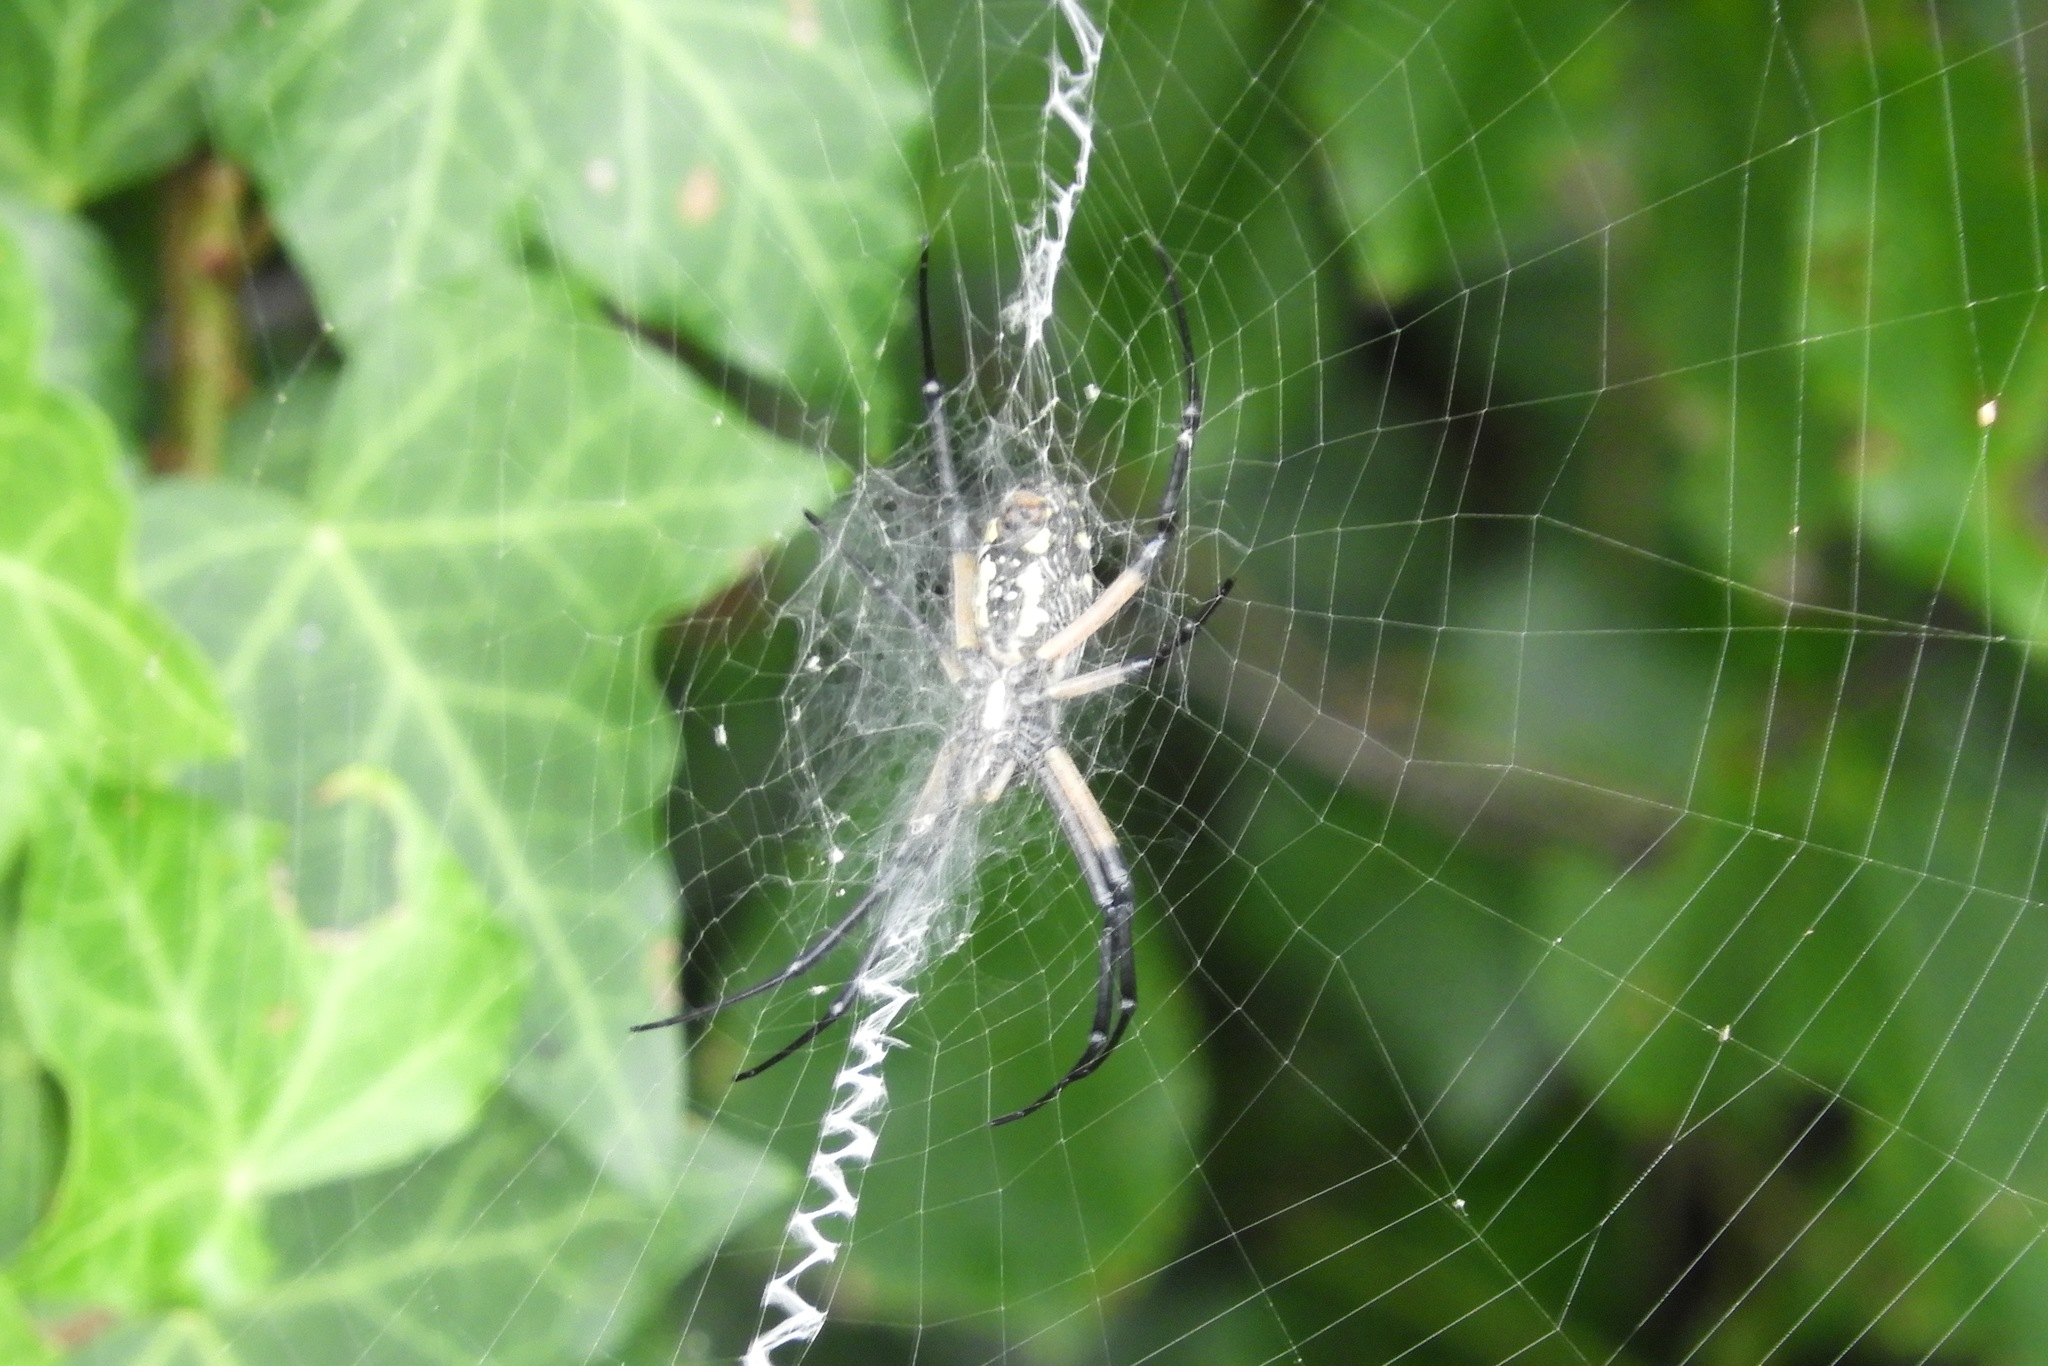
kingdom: Animalia
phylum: Arthropoda
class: Arachnida
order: Araneae
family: Araneidae
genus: Argiope
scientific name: Argiope aurantia
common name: Orb weavers
